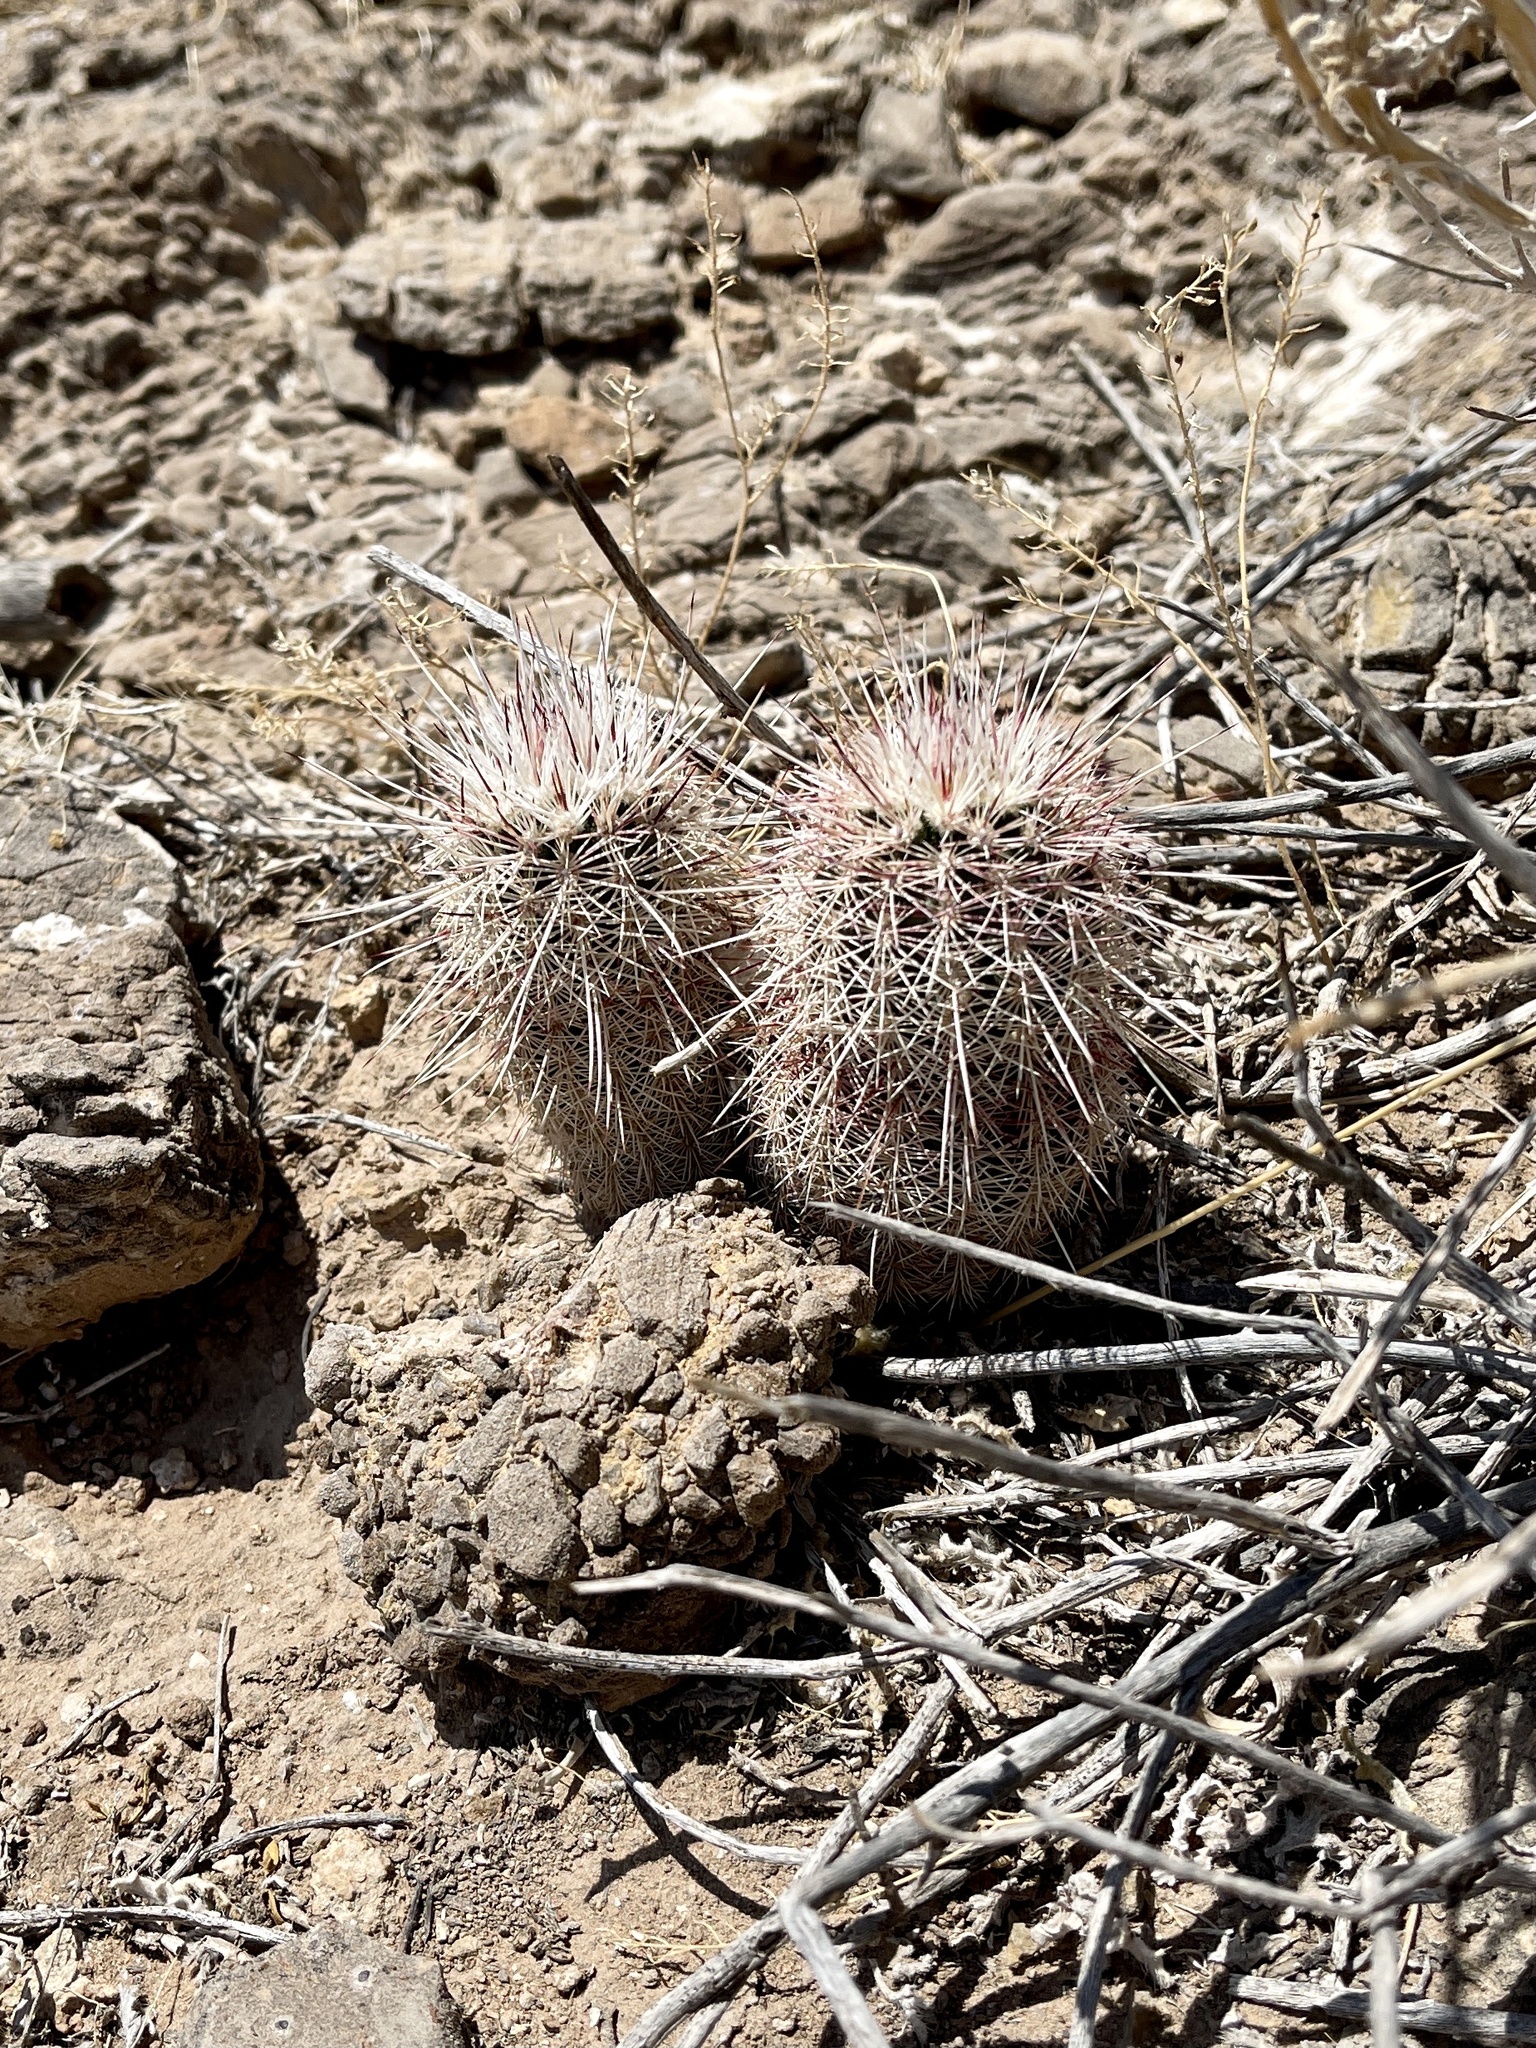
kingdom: Plantae
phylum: Tracheophyta
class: Magnoliopsida
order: Caryophyllales
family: Cactaceae
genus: Echinocereus
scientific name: Echinocereus viridiflorus
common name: Nylon hedgehog cactus
